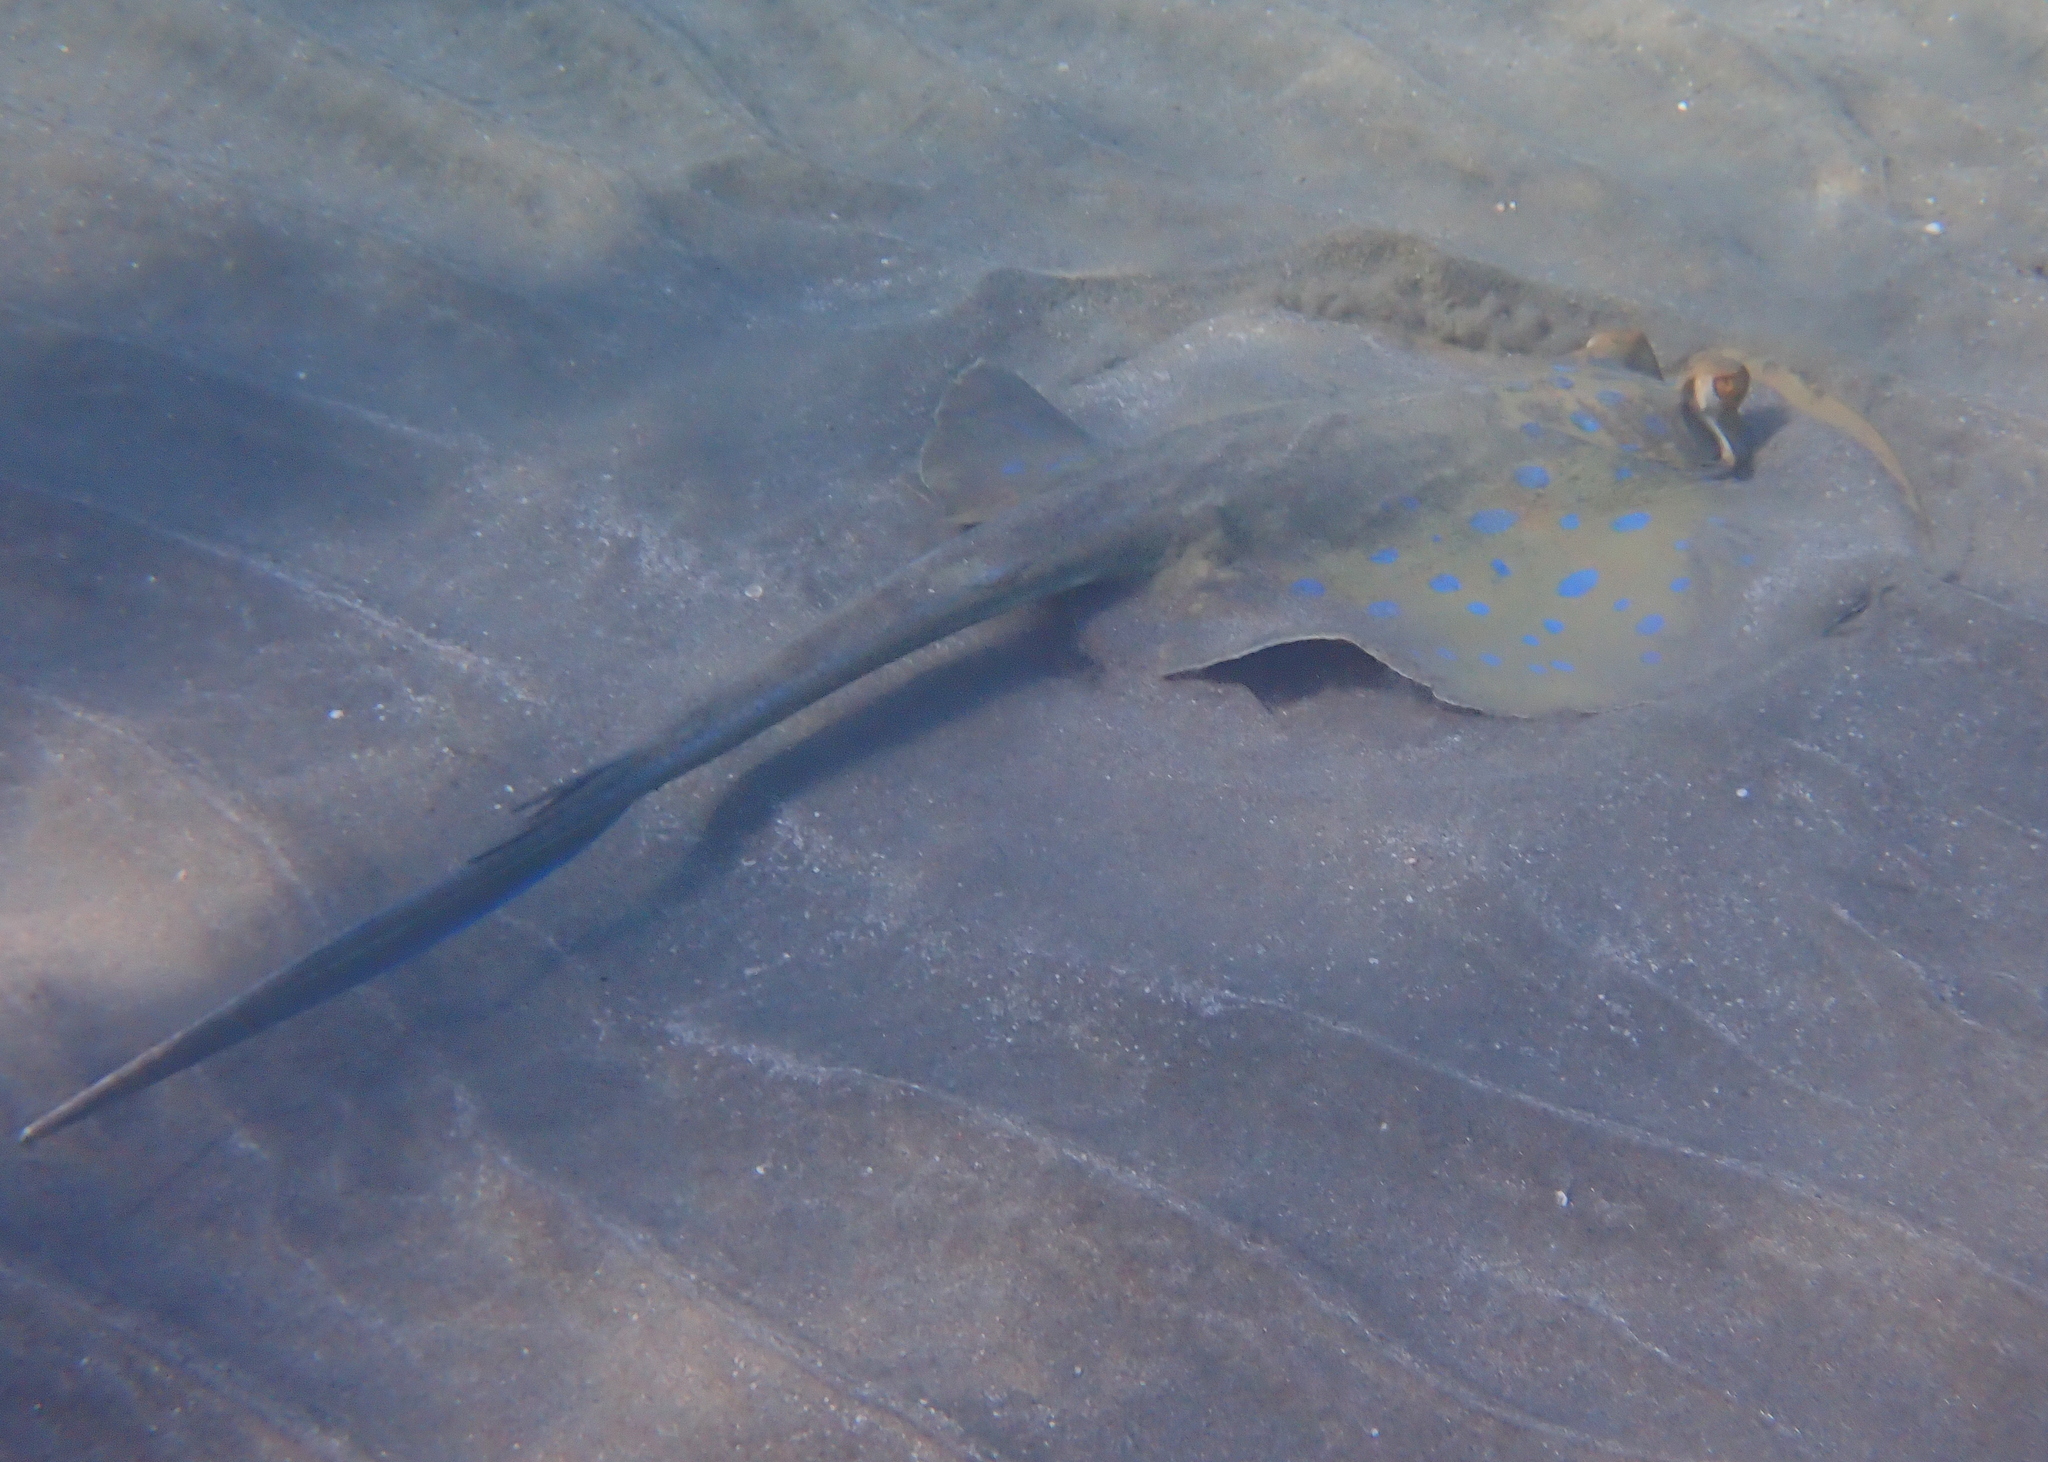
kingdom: Animalia
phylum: Chordata
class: Elasmobranchii
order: Myliobatiformes
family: Dasyatidae
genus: Taeniura
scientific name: Taeniura lymma
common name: Bluespotted ribbontail ray
